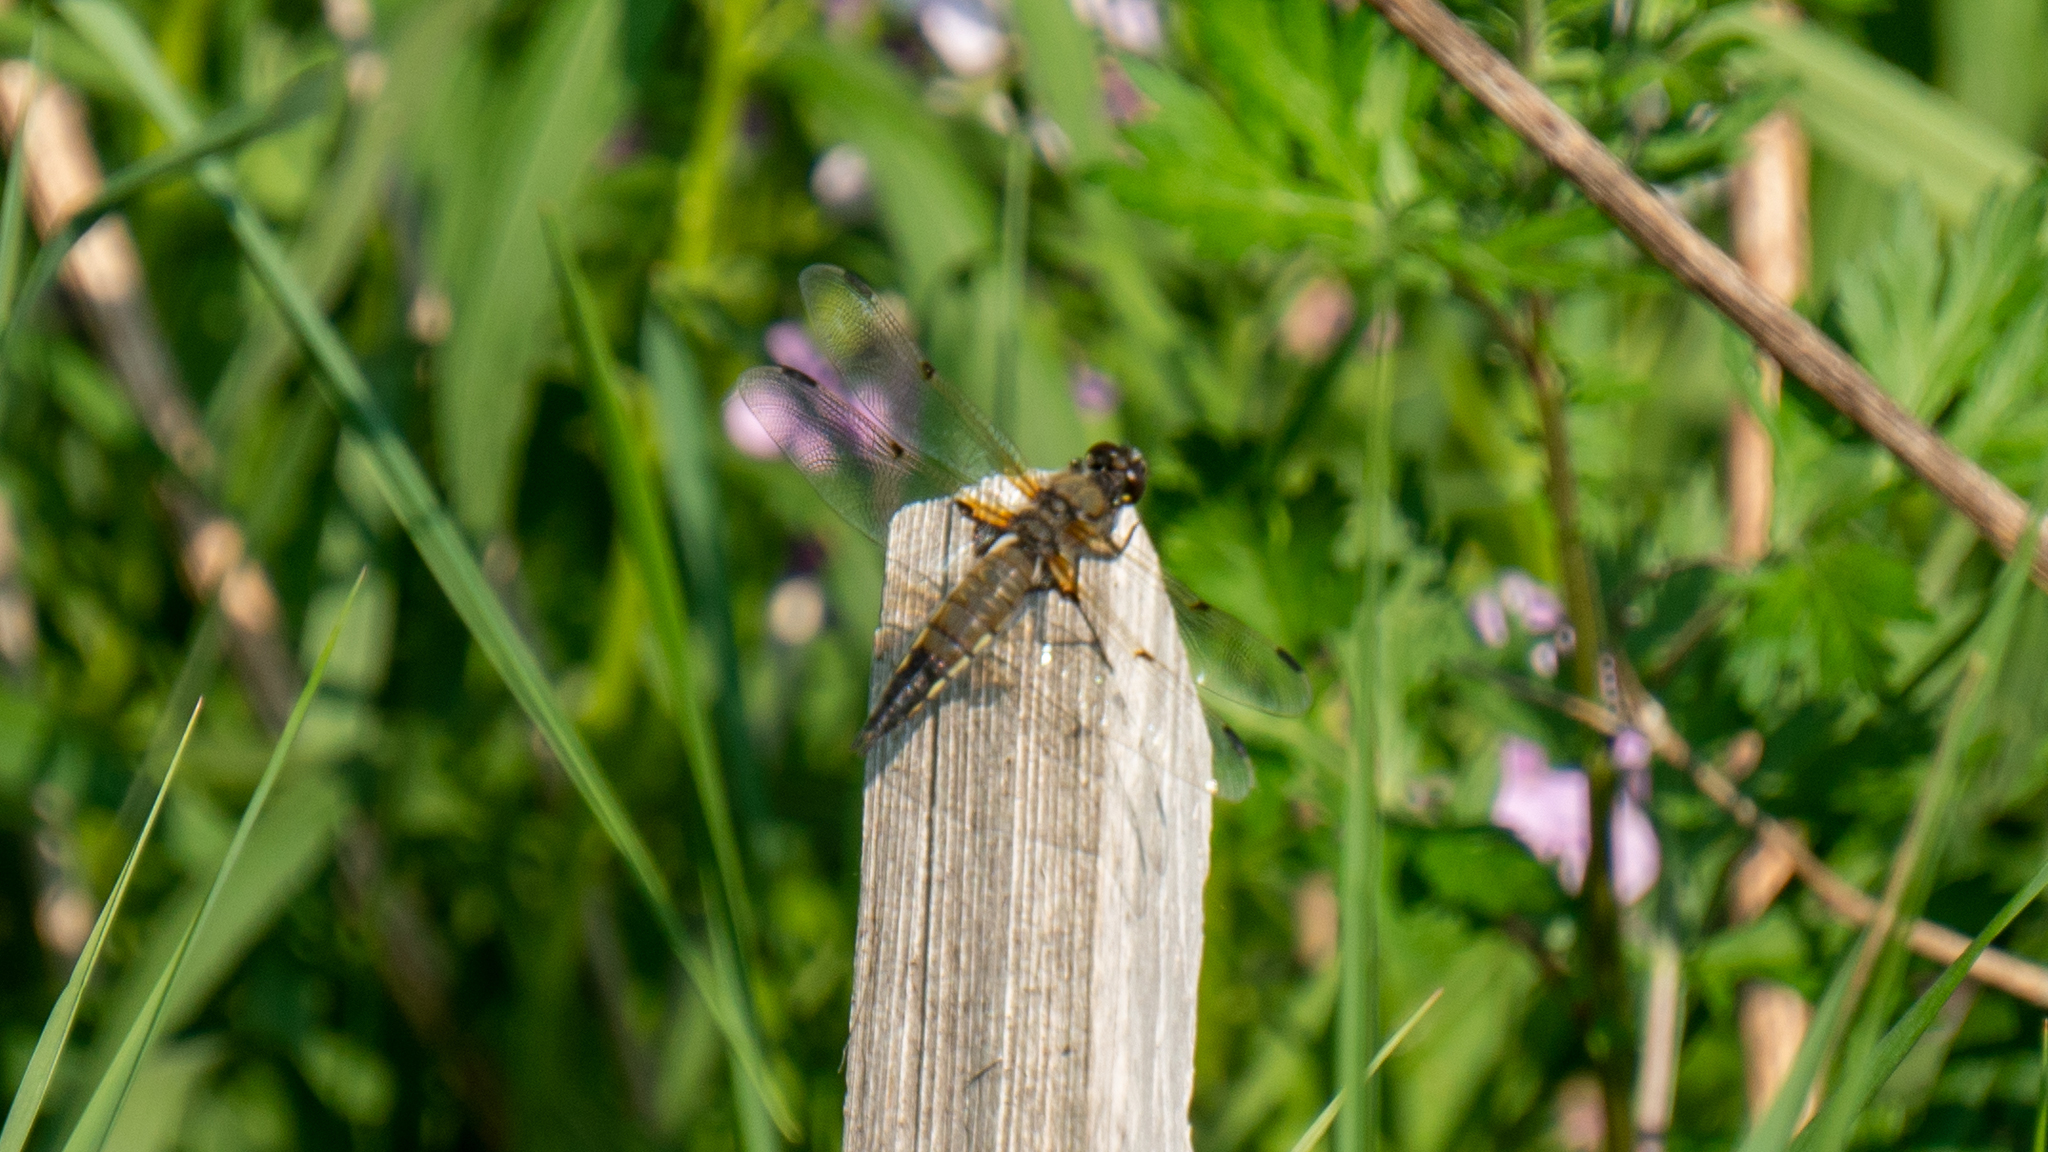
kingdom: Animalia
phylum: Arthropoda
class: Insecta
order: Odonata
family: Libellulidae
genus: Libellula
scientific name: Libellula quadrimaculata
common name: Four-spotted chaser
